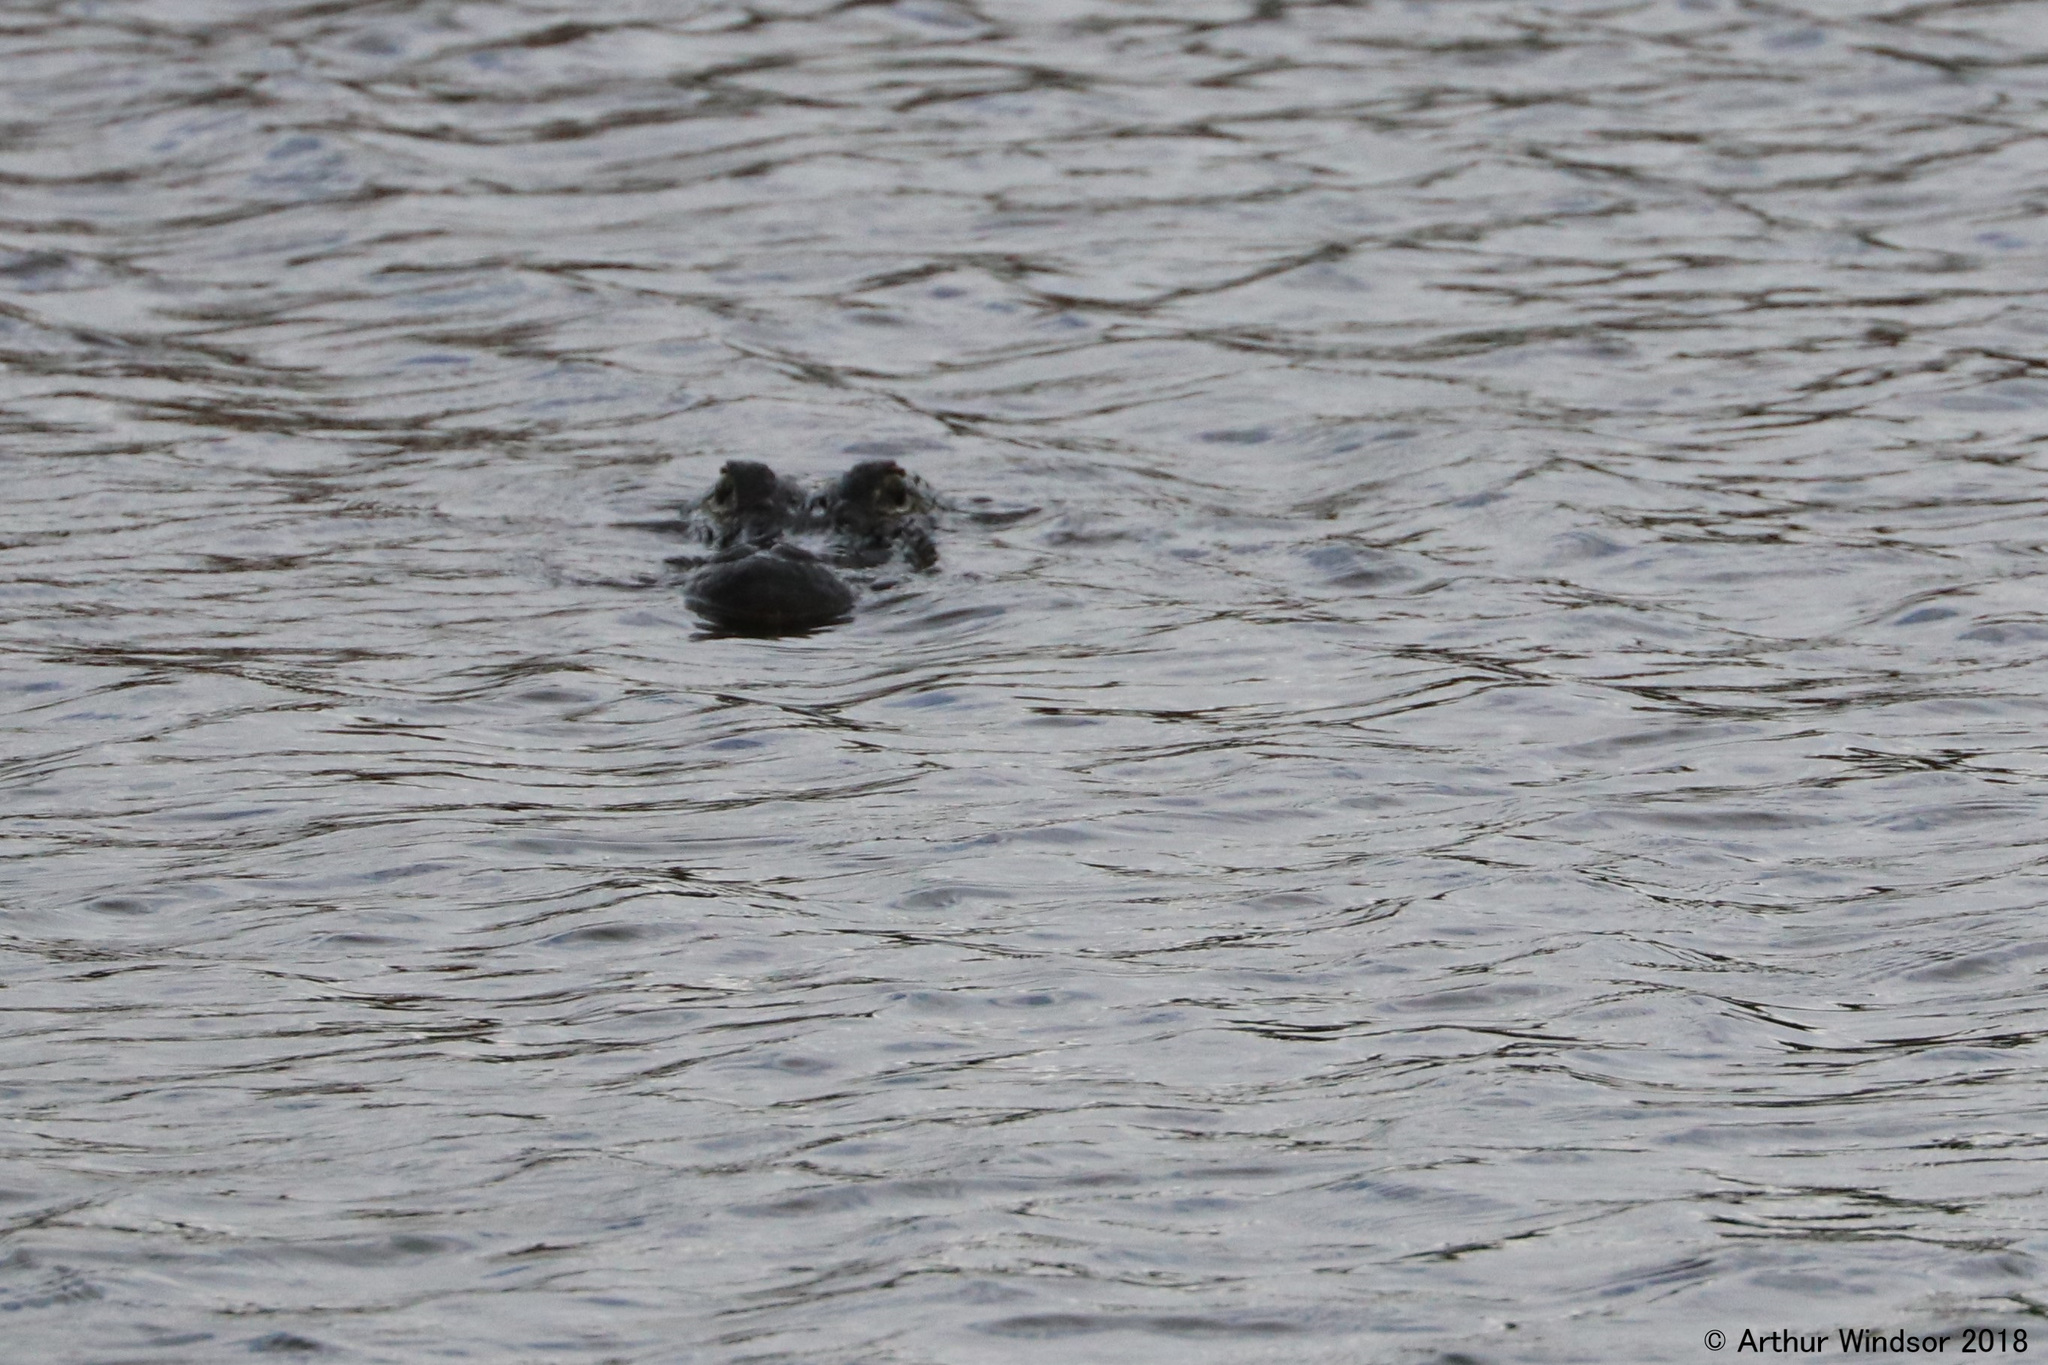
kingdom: Animalia
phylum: Chordata
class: Crocodylia
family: Alligatoridae
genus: Alligator
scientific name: Alligator mississippiensis
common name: American alligator
